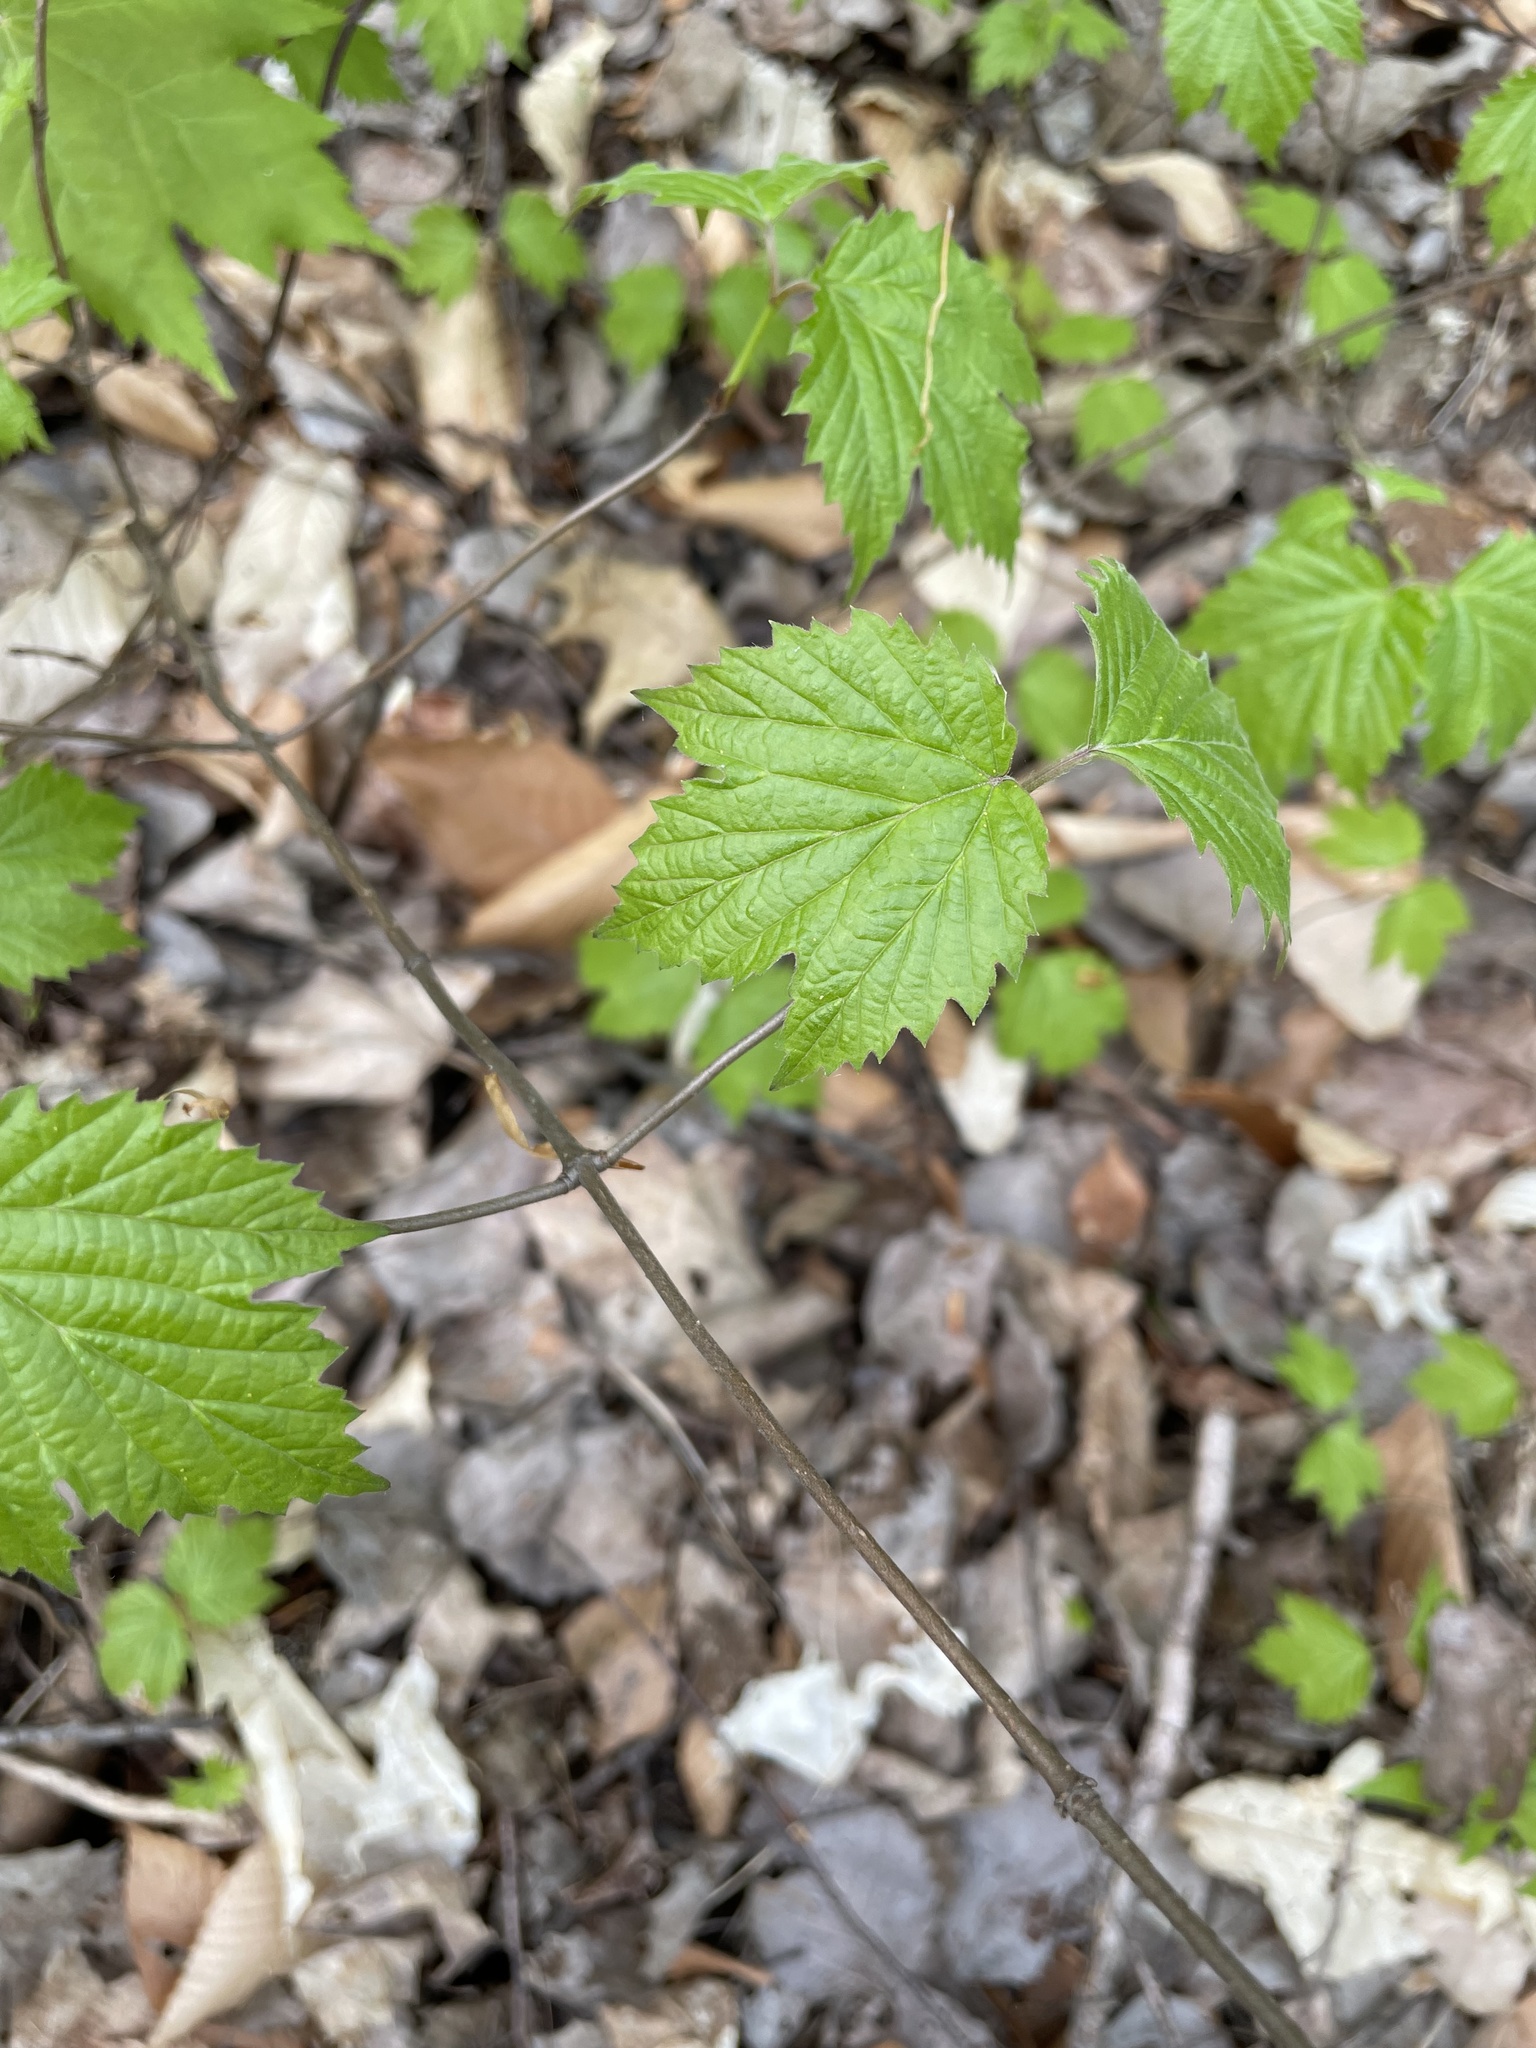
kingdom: Plantae
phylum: Tracheophyta
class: Magnoliopsida
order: Dipsacales
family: Viburnaceae
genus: Viburnum
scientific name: Viburnum acerifolium
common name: Dockmackie
